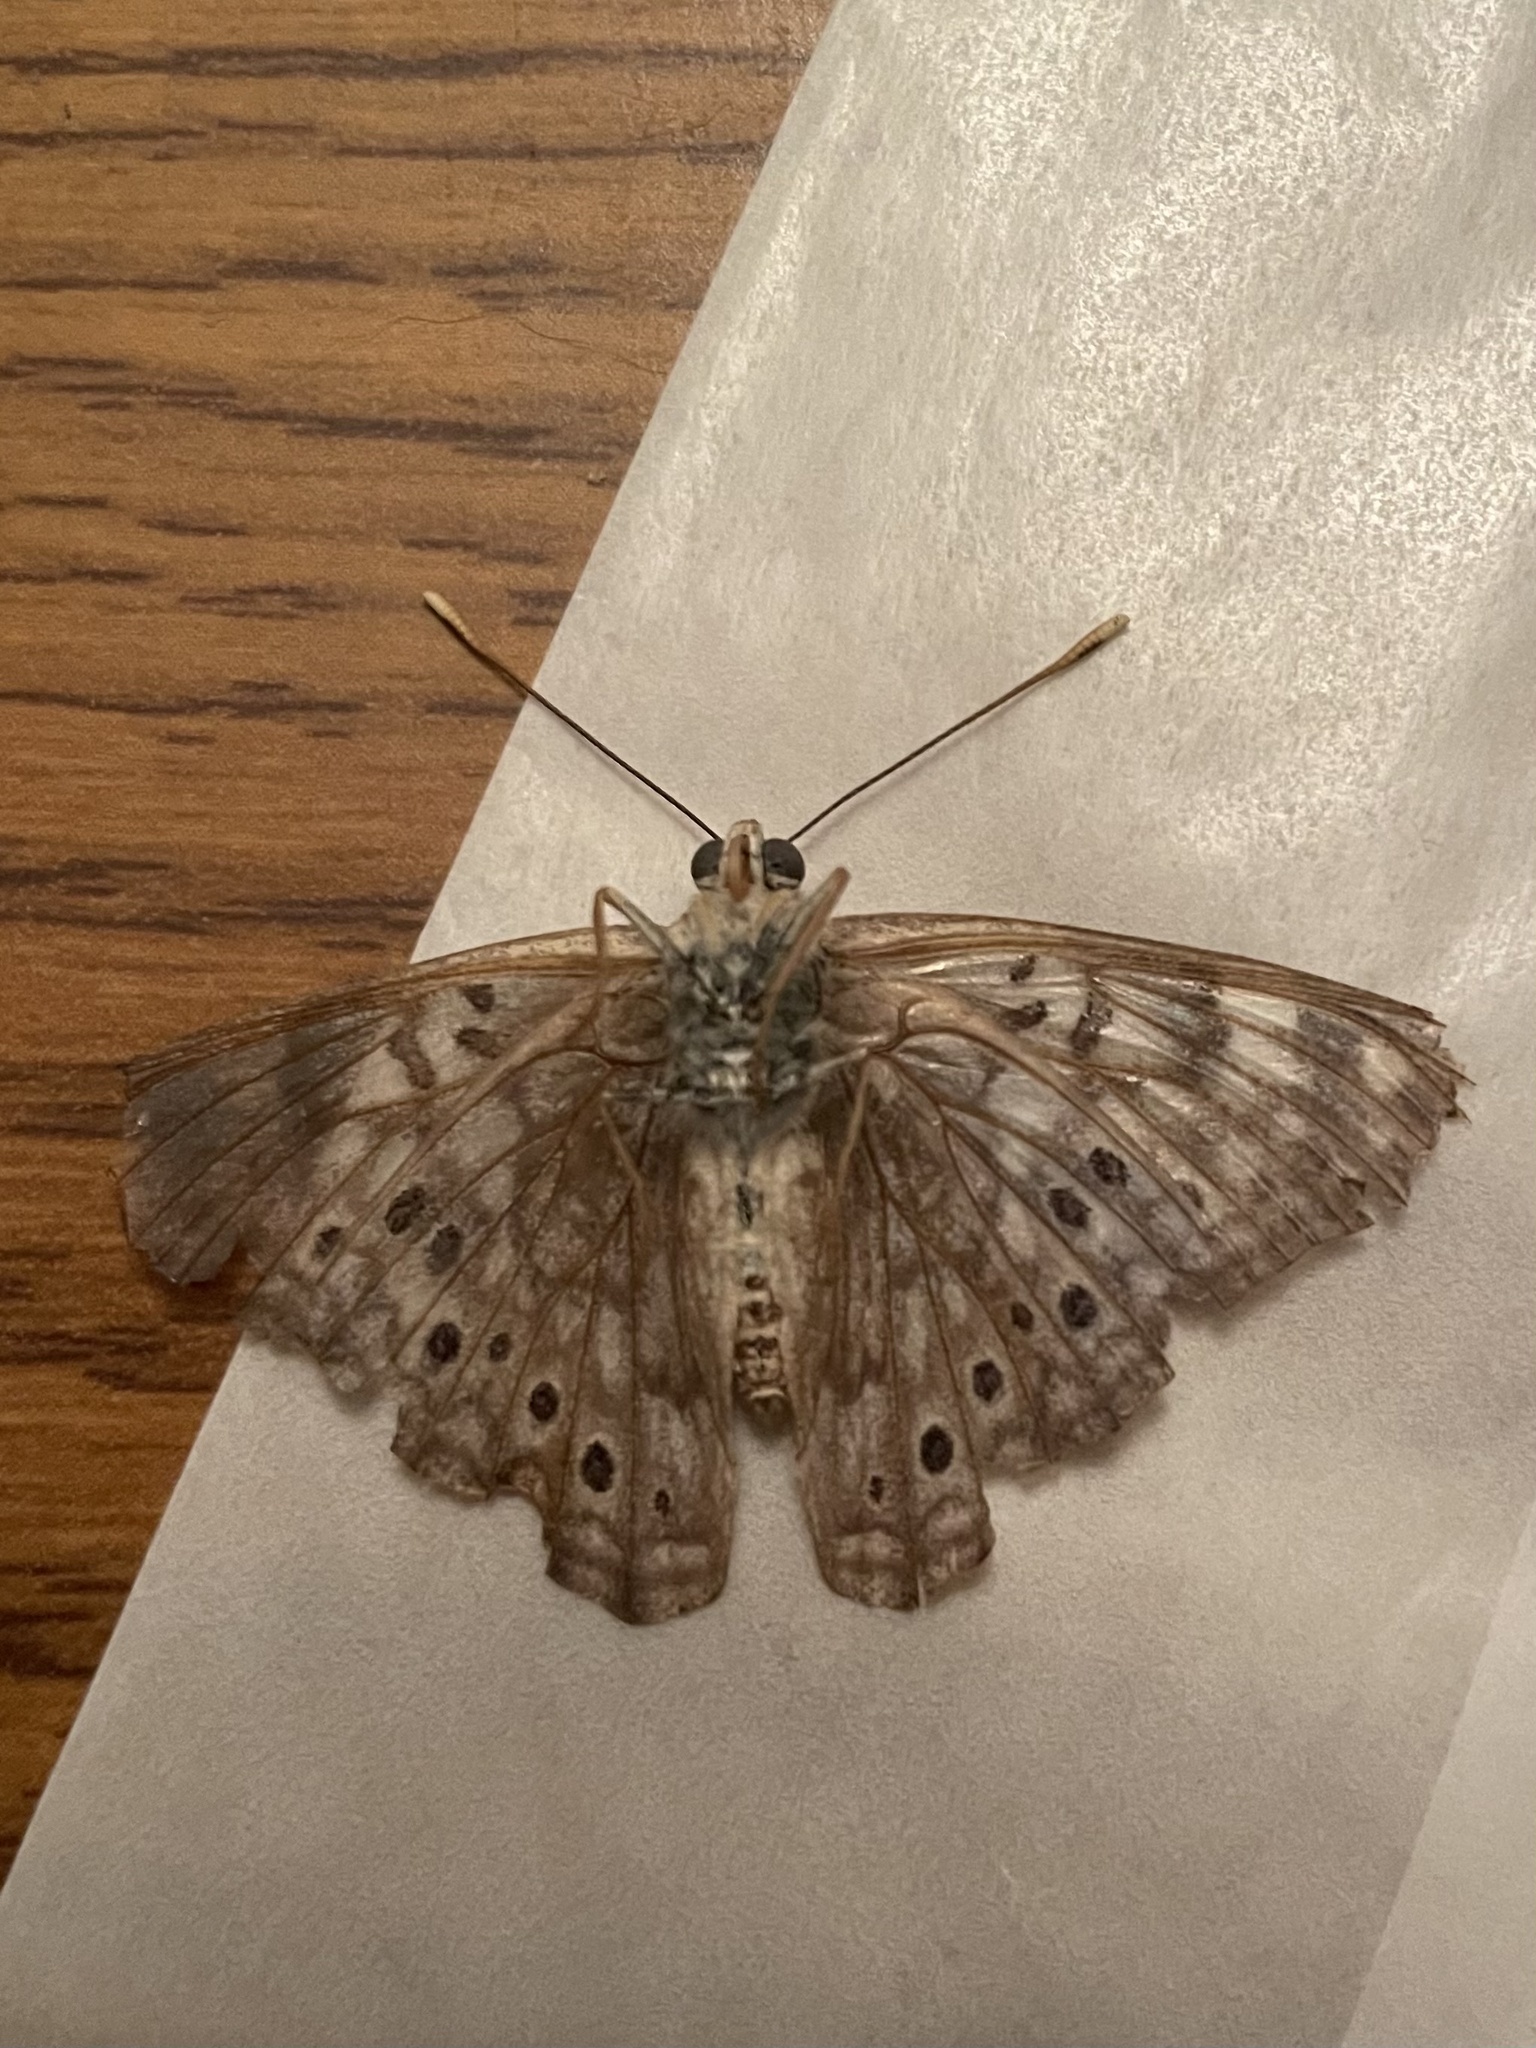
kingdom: Animalia
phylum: Arthropoda
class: Insecta
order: Lepidoptera
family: Nymphalidae
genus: Asterocampa
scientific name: Asterocampa celtis
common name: Hackberry emperor
